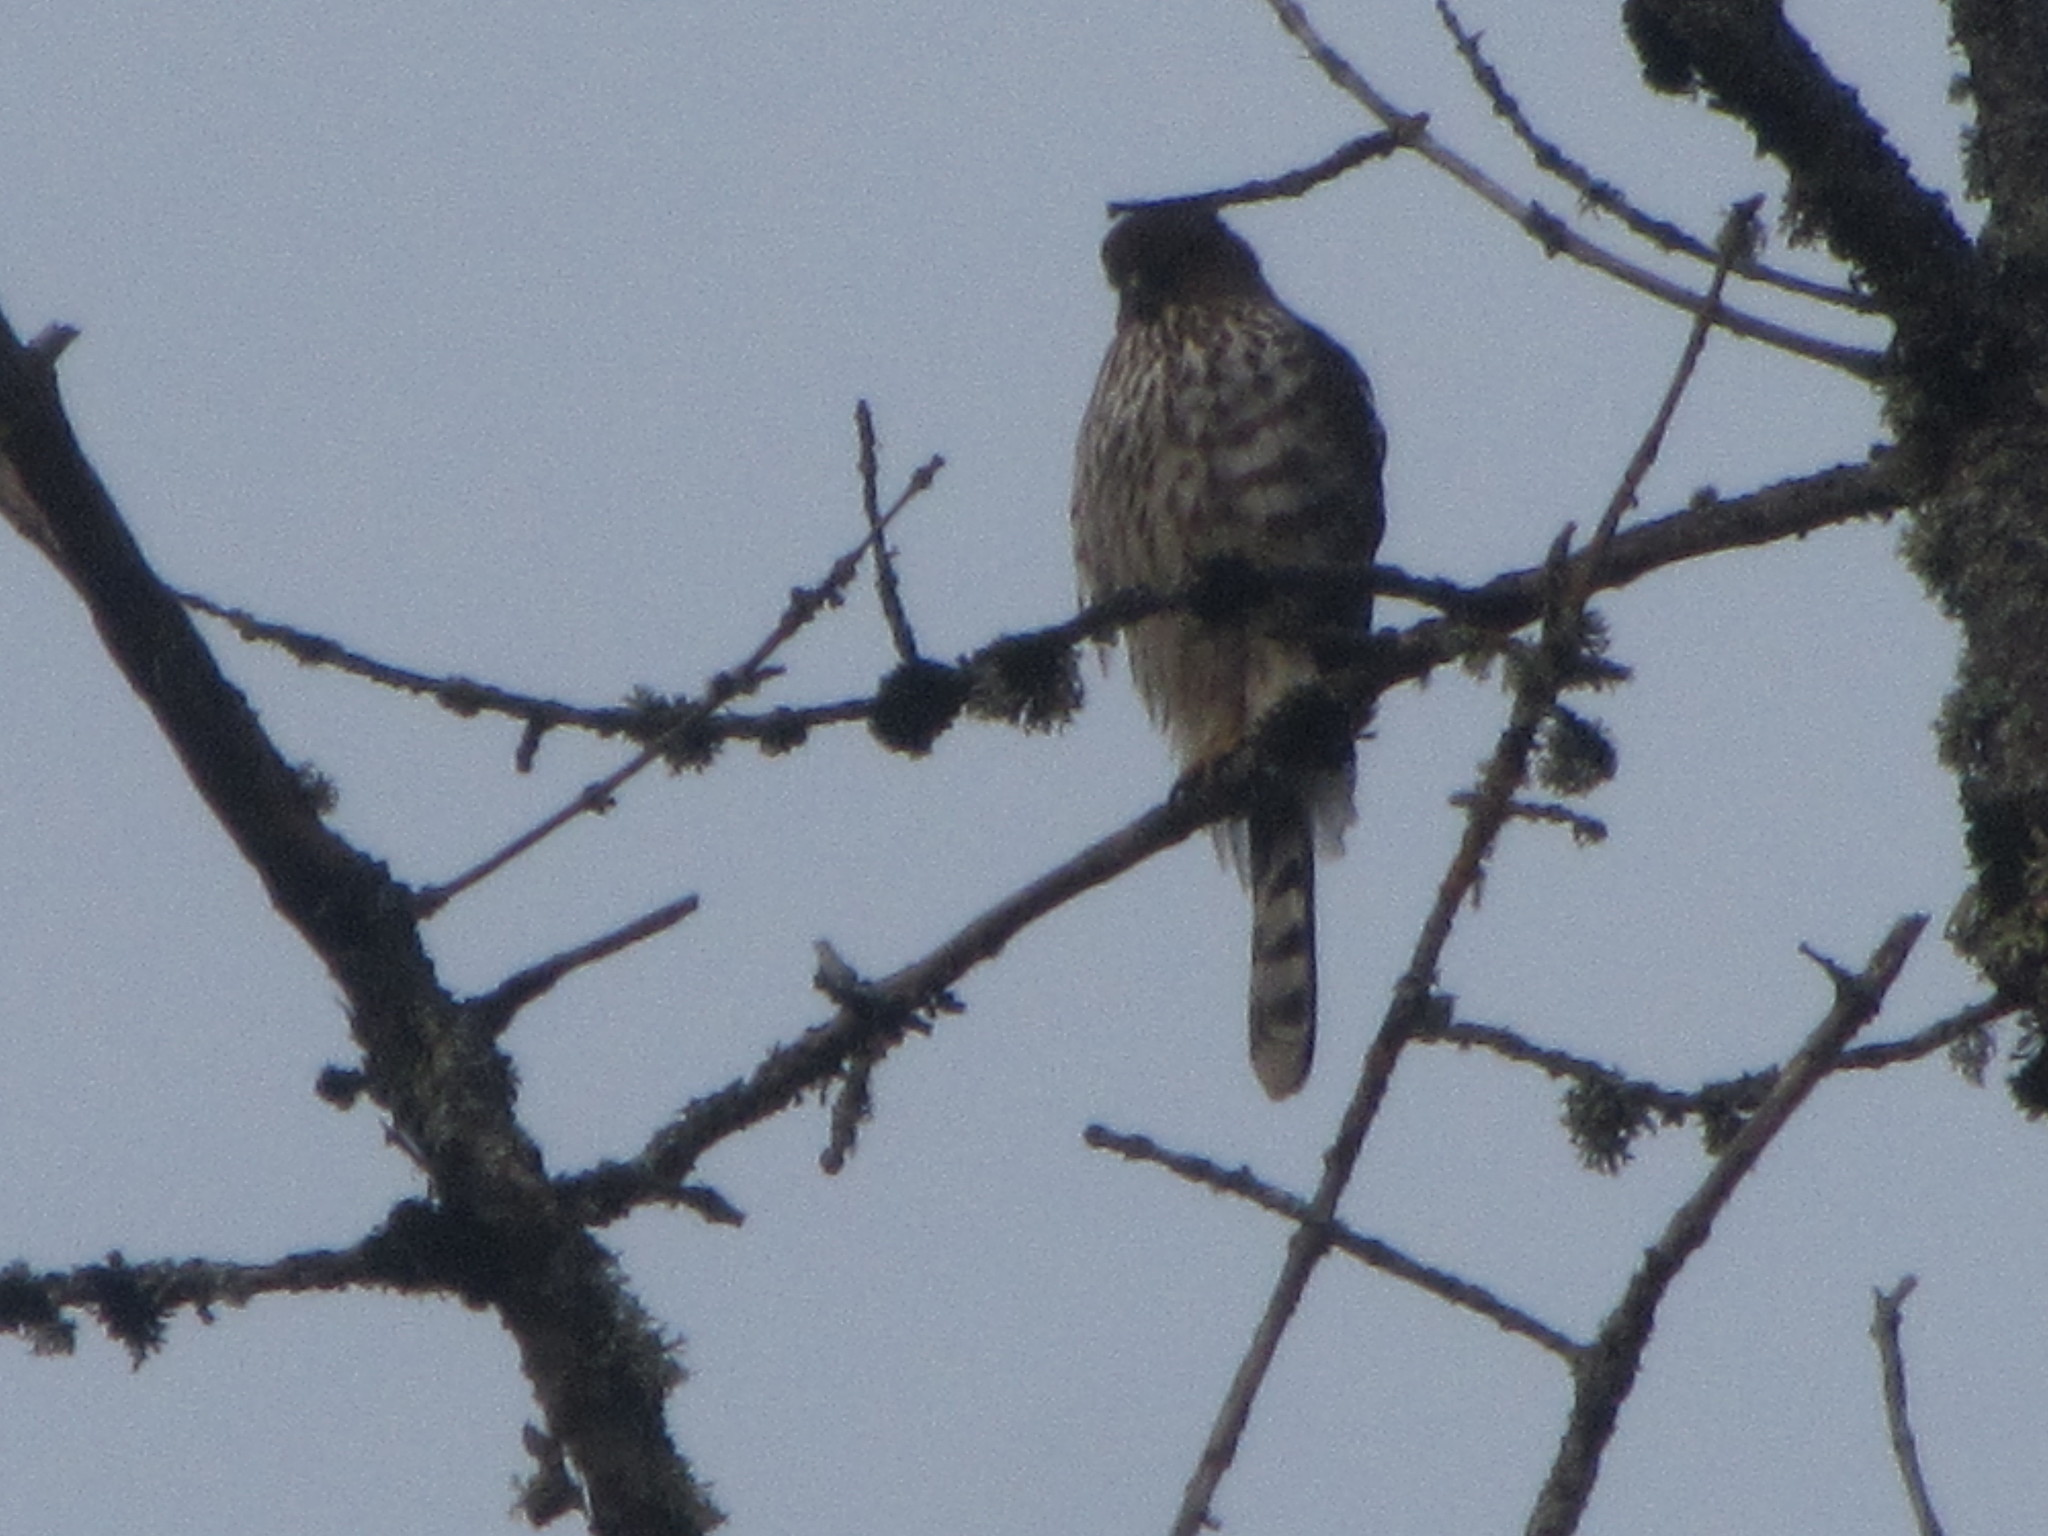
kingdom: Animalia
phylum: Chordata
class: Aves
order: Accipitriformes
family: Accipitridae
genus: Accipiter
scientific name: Accipiter cooperii
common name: Cooper's hawk
